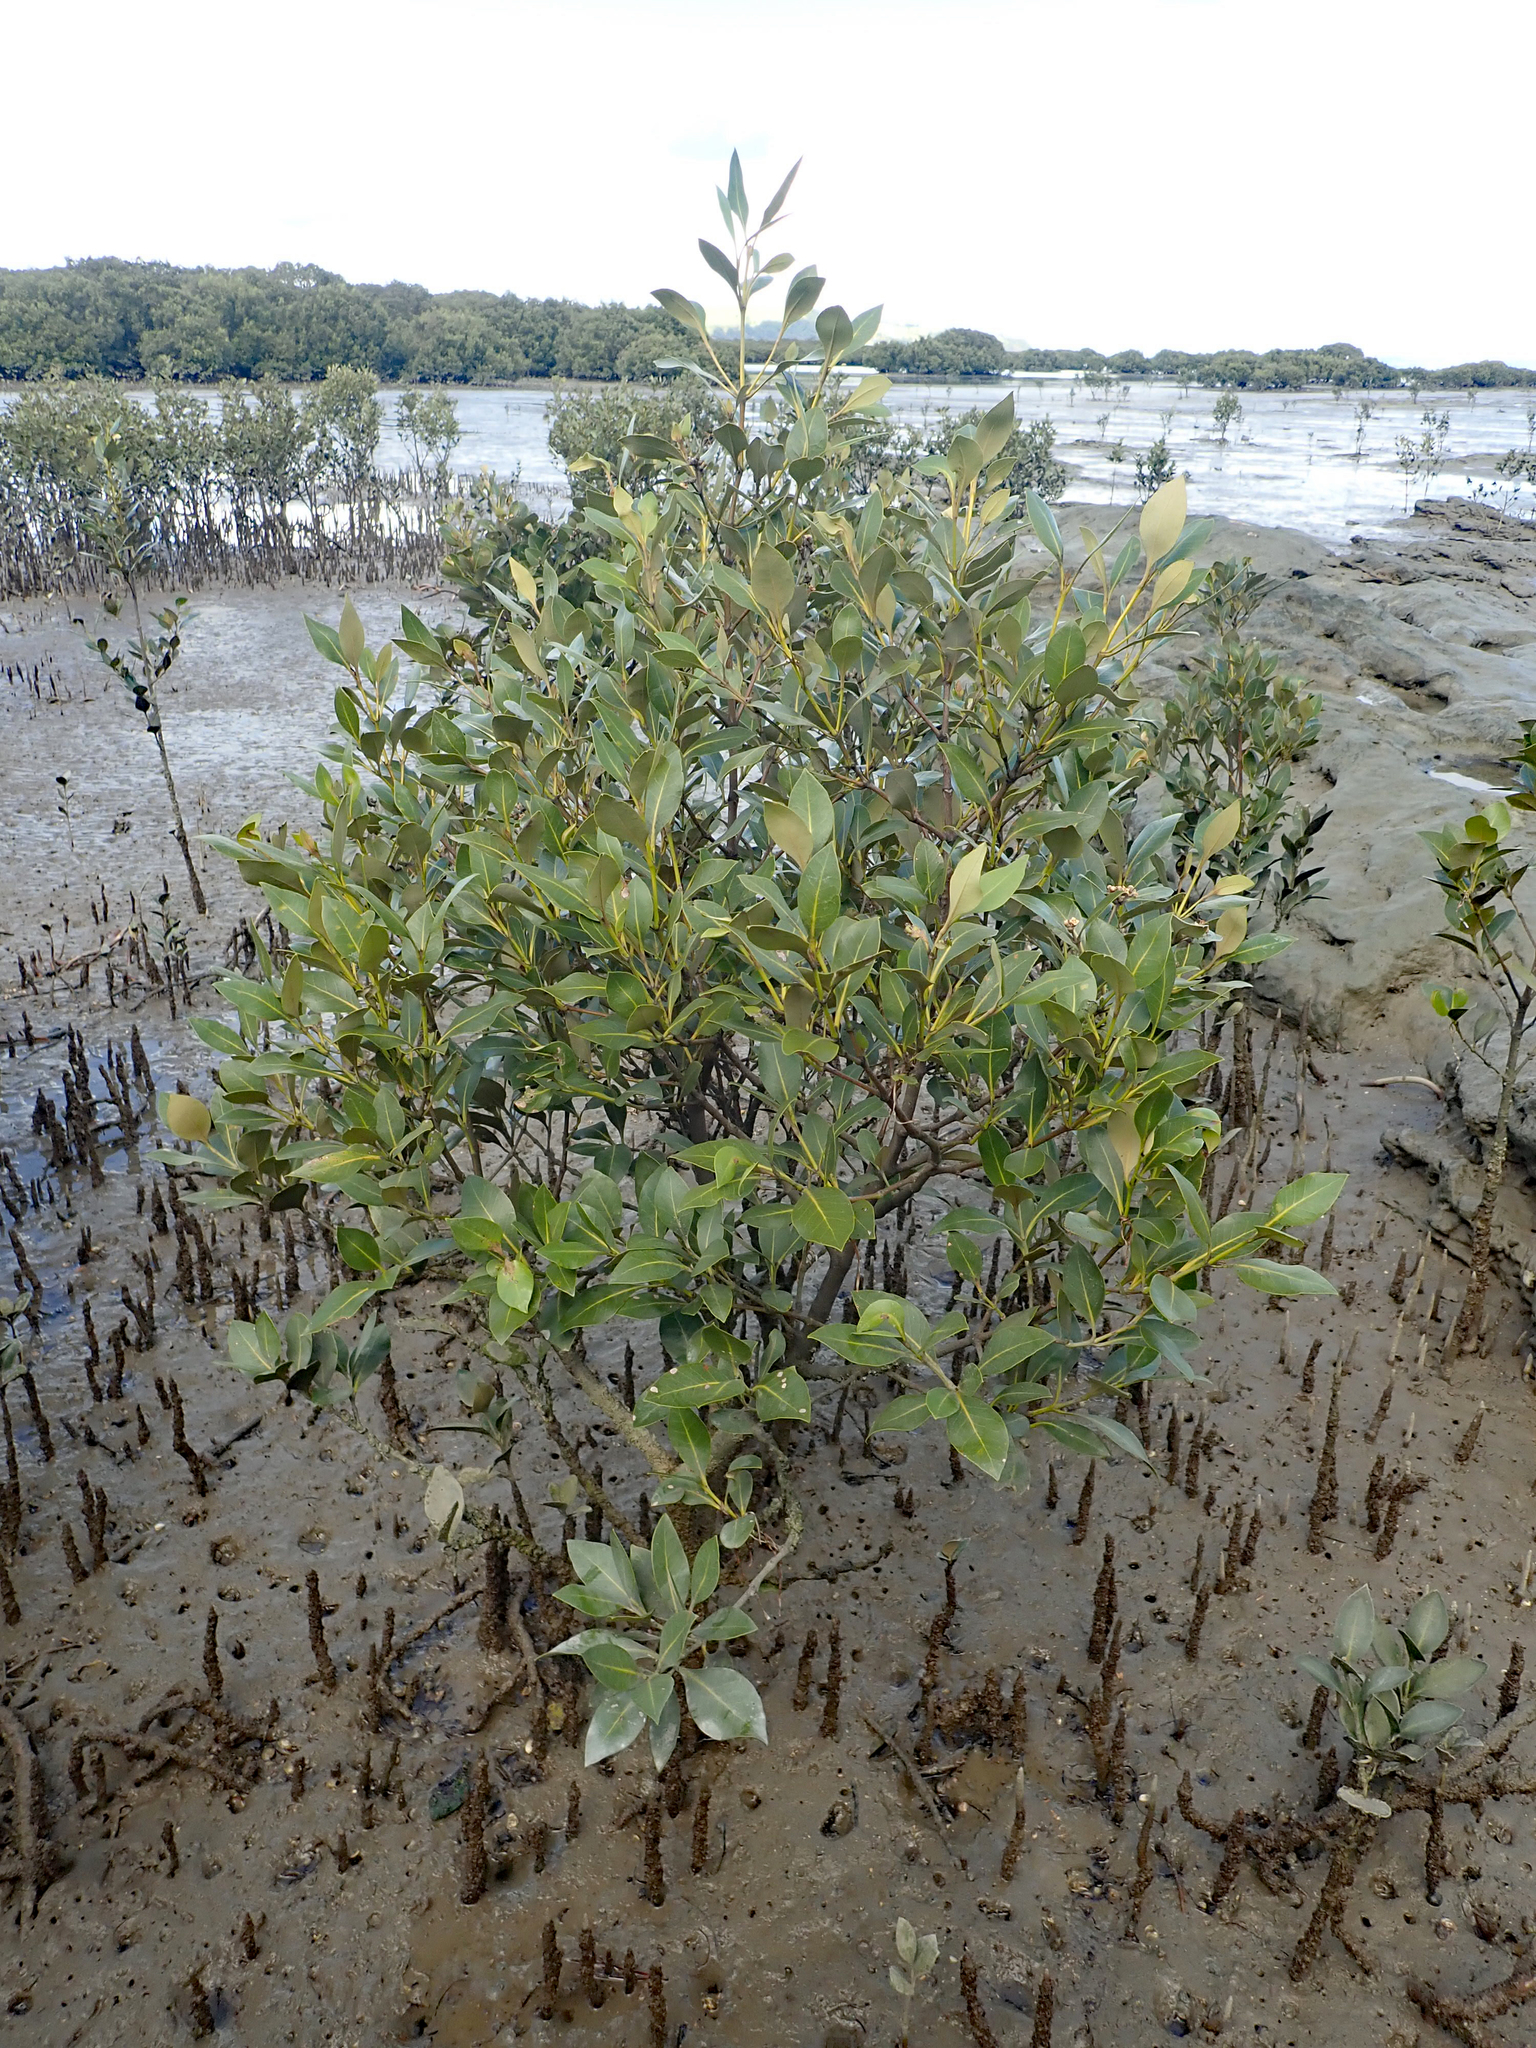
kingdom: Plantae
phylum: Tracheophyta
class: Magnoliopsida
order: Lamiales
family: Acanthaceae
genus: Avicennia
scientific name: Avicennia marina
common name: Gray mangrove
